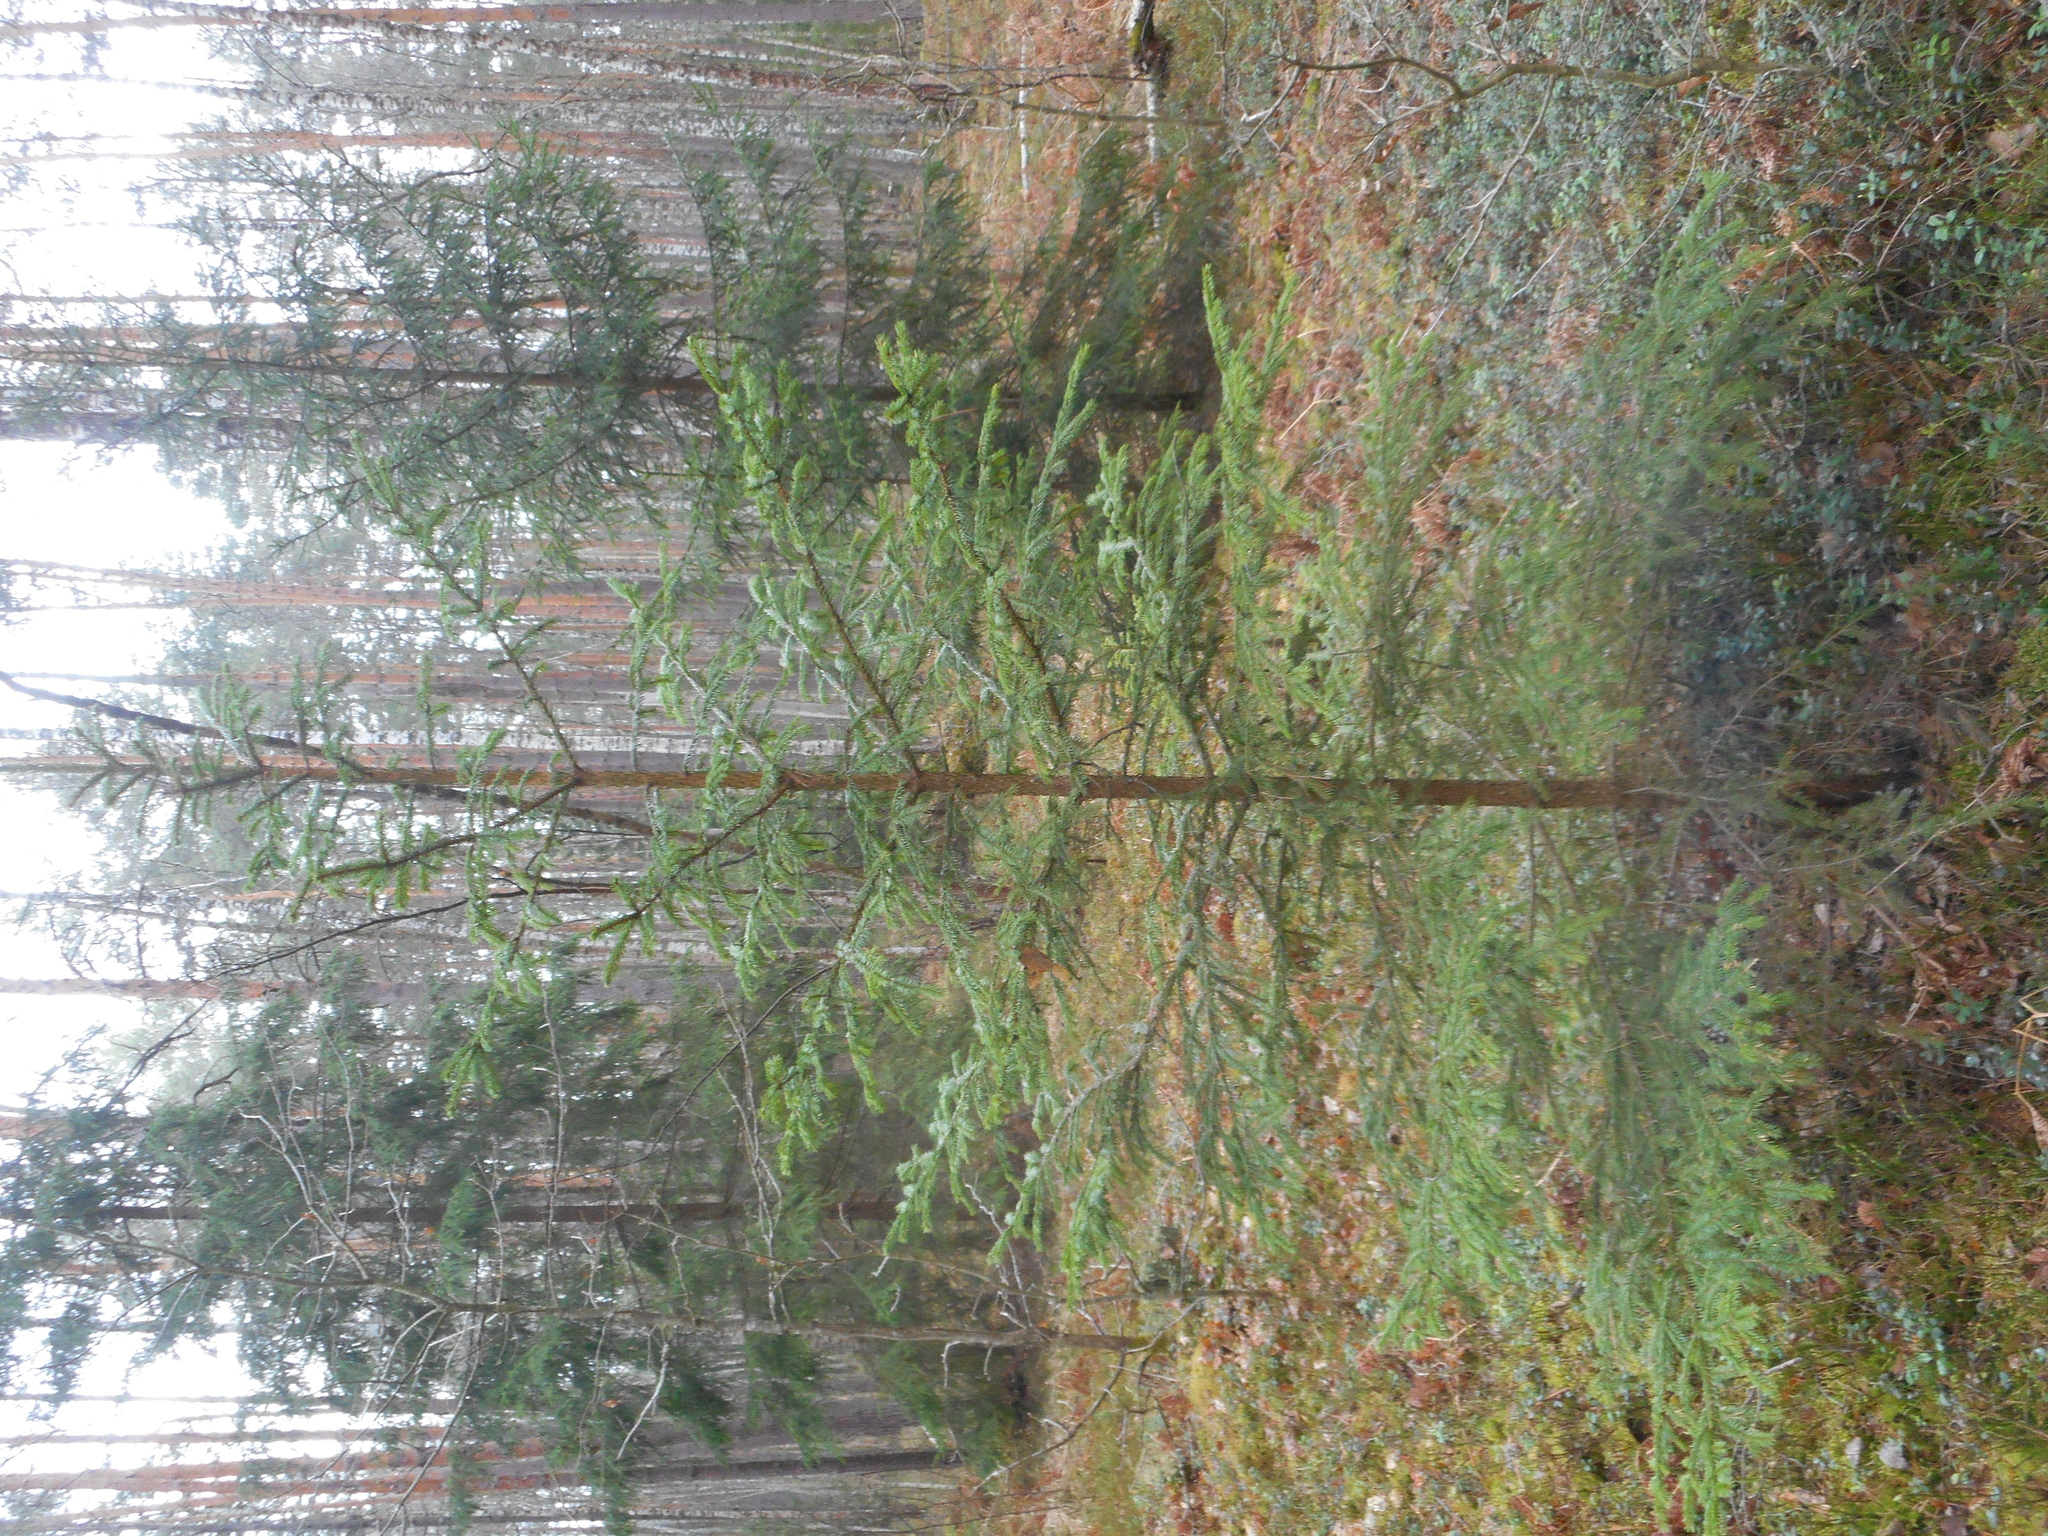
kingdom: Plantae
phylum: Tracheophyta
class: Pinopsida
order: Pinales
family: Pinaceae
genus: Picea
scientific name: Picea abies
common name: Norway spruce
